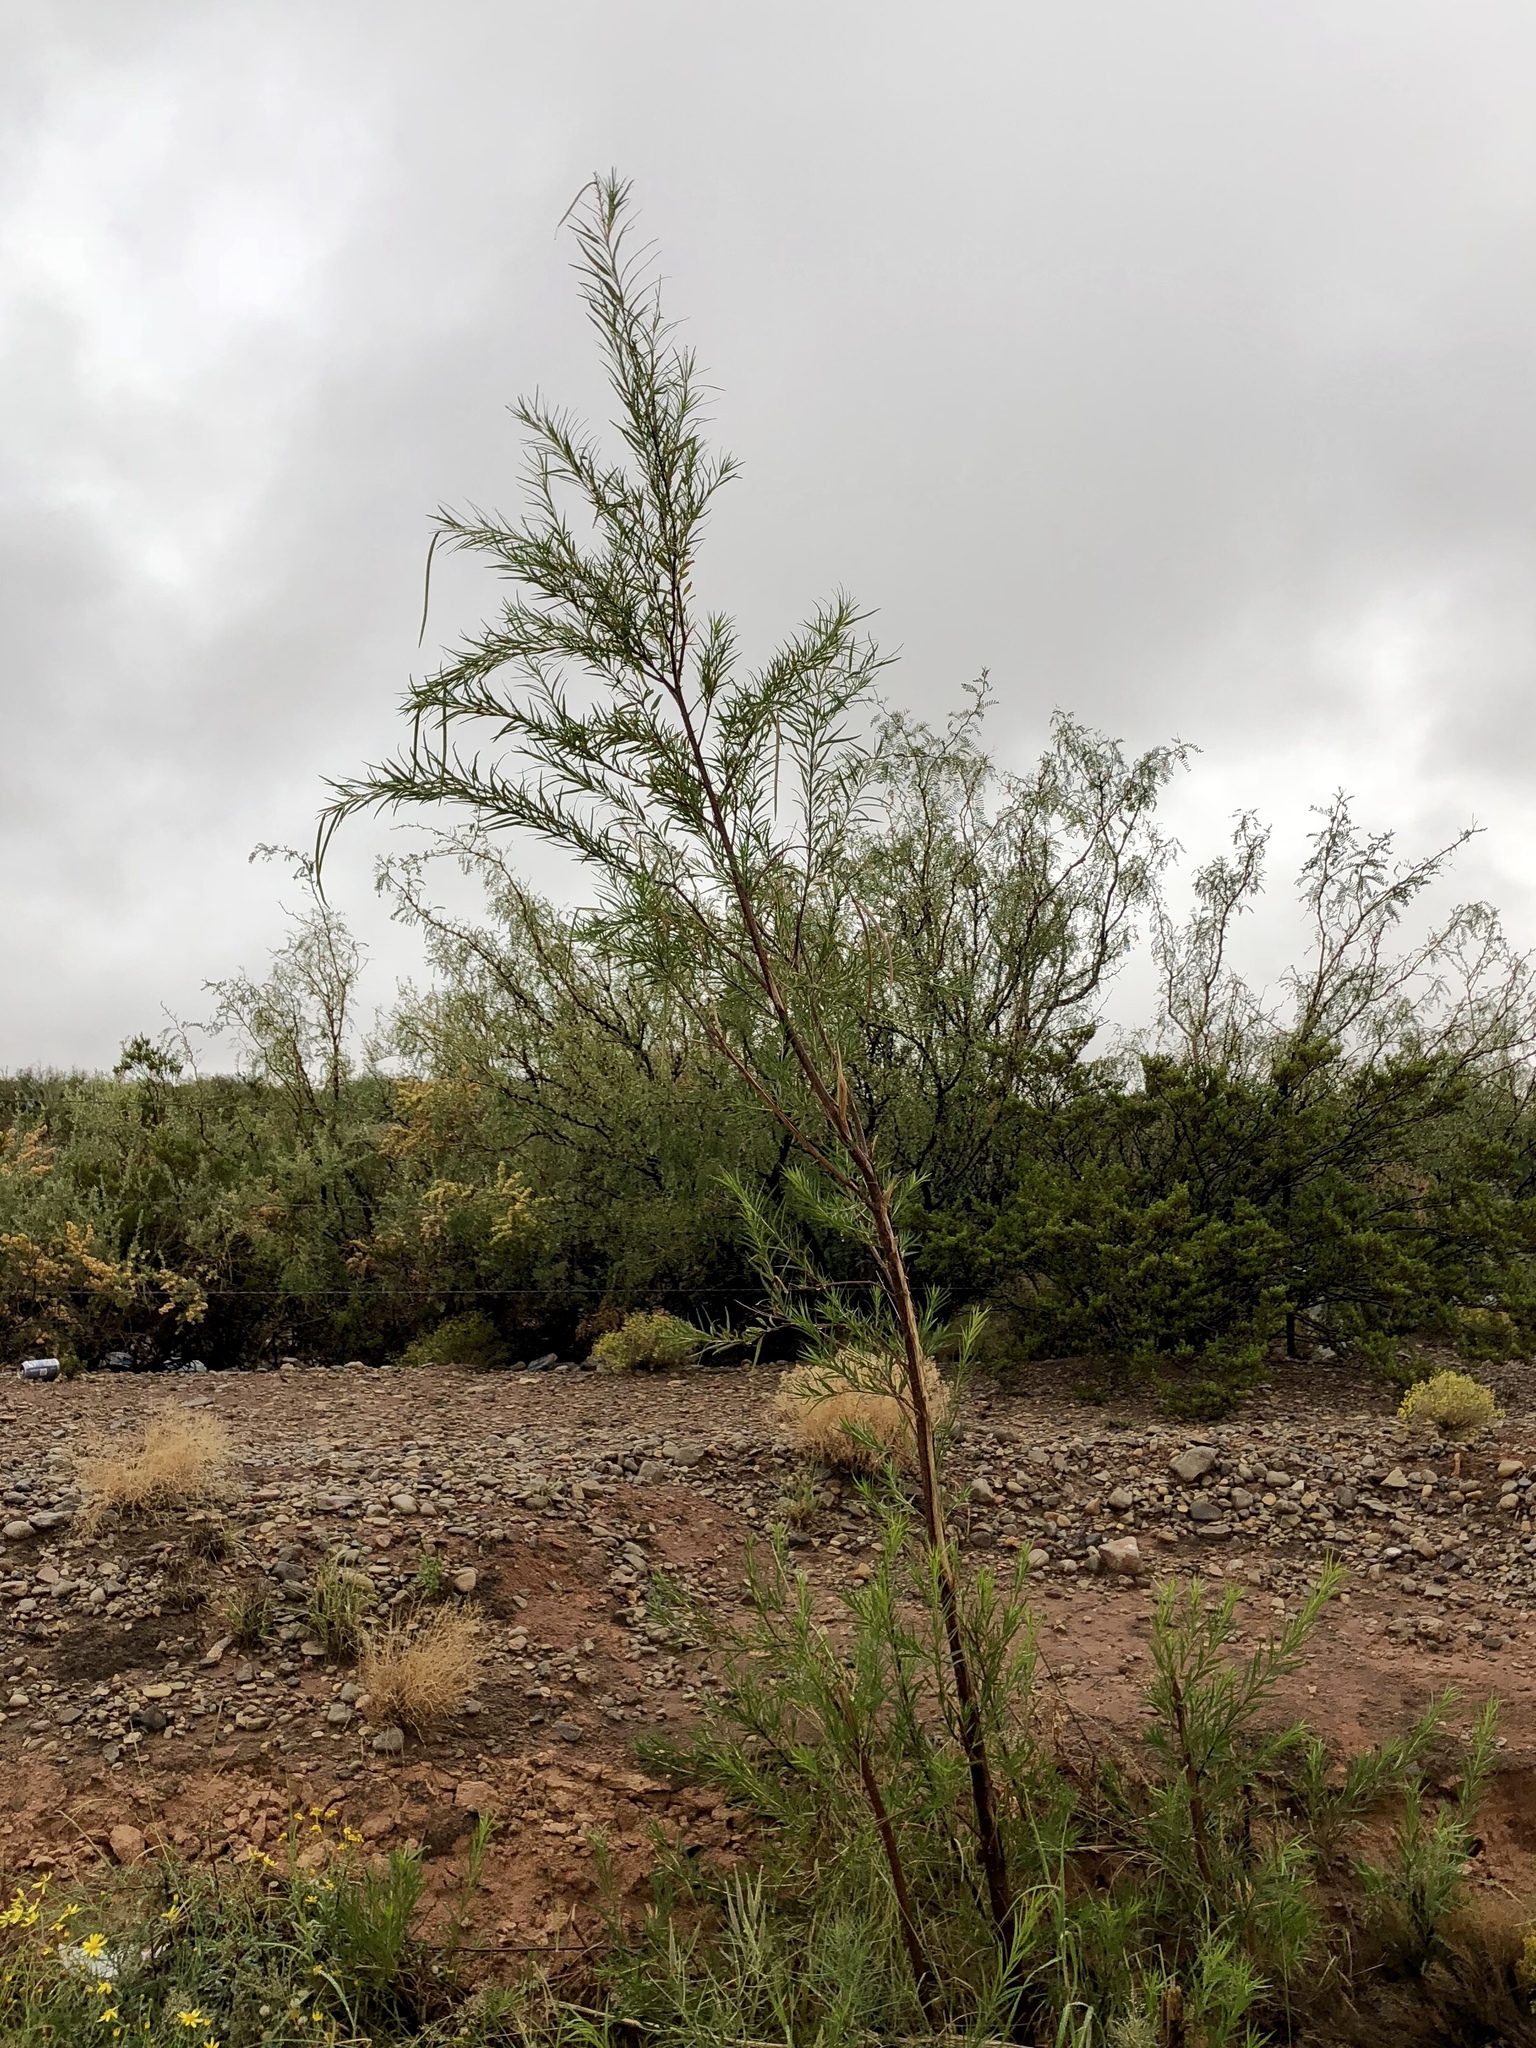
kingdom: Plantae
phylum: Tracheophyta
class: Magnoliopsida
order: Lamiales
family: Bignoniaceae
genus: Chilopsis
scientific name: Chilopsis linearis
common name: Desert-willow
